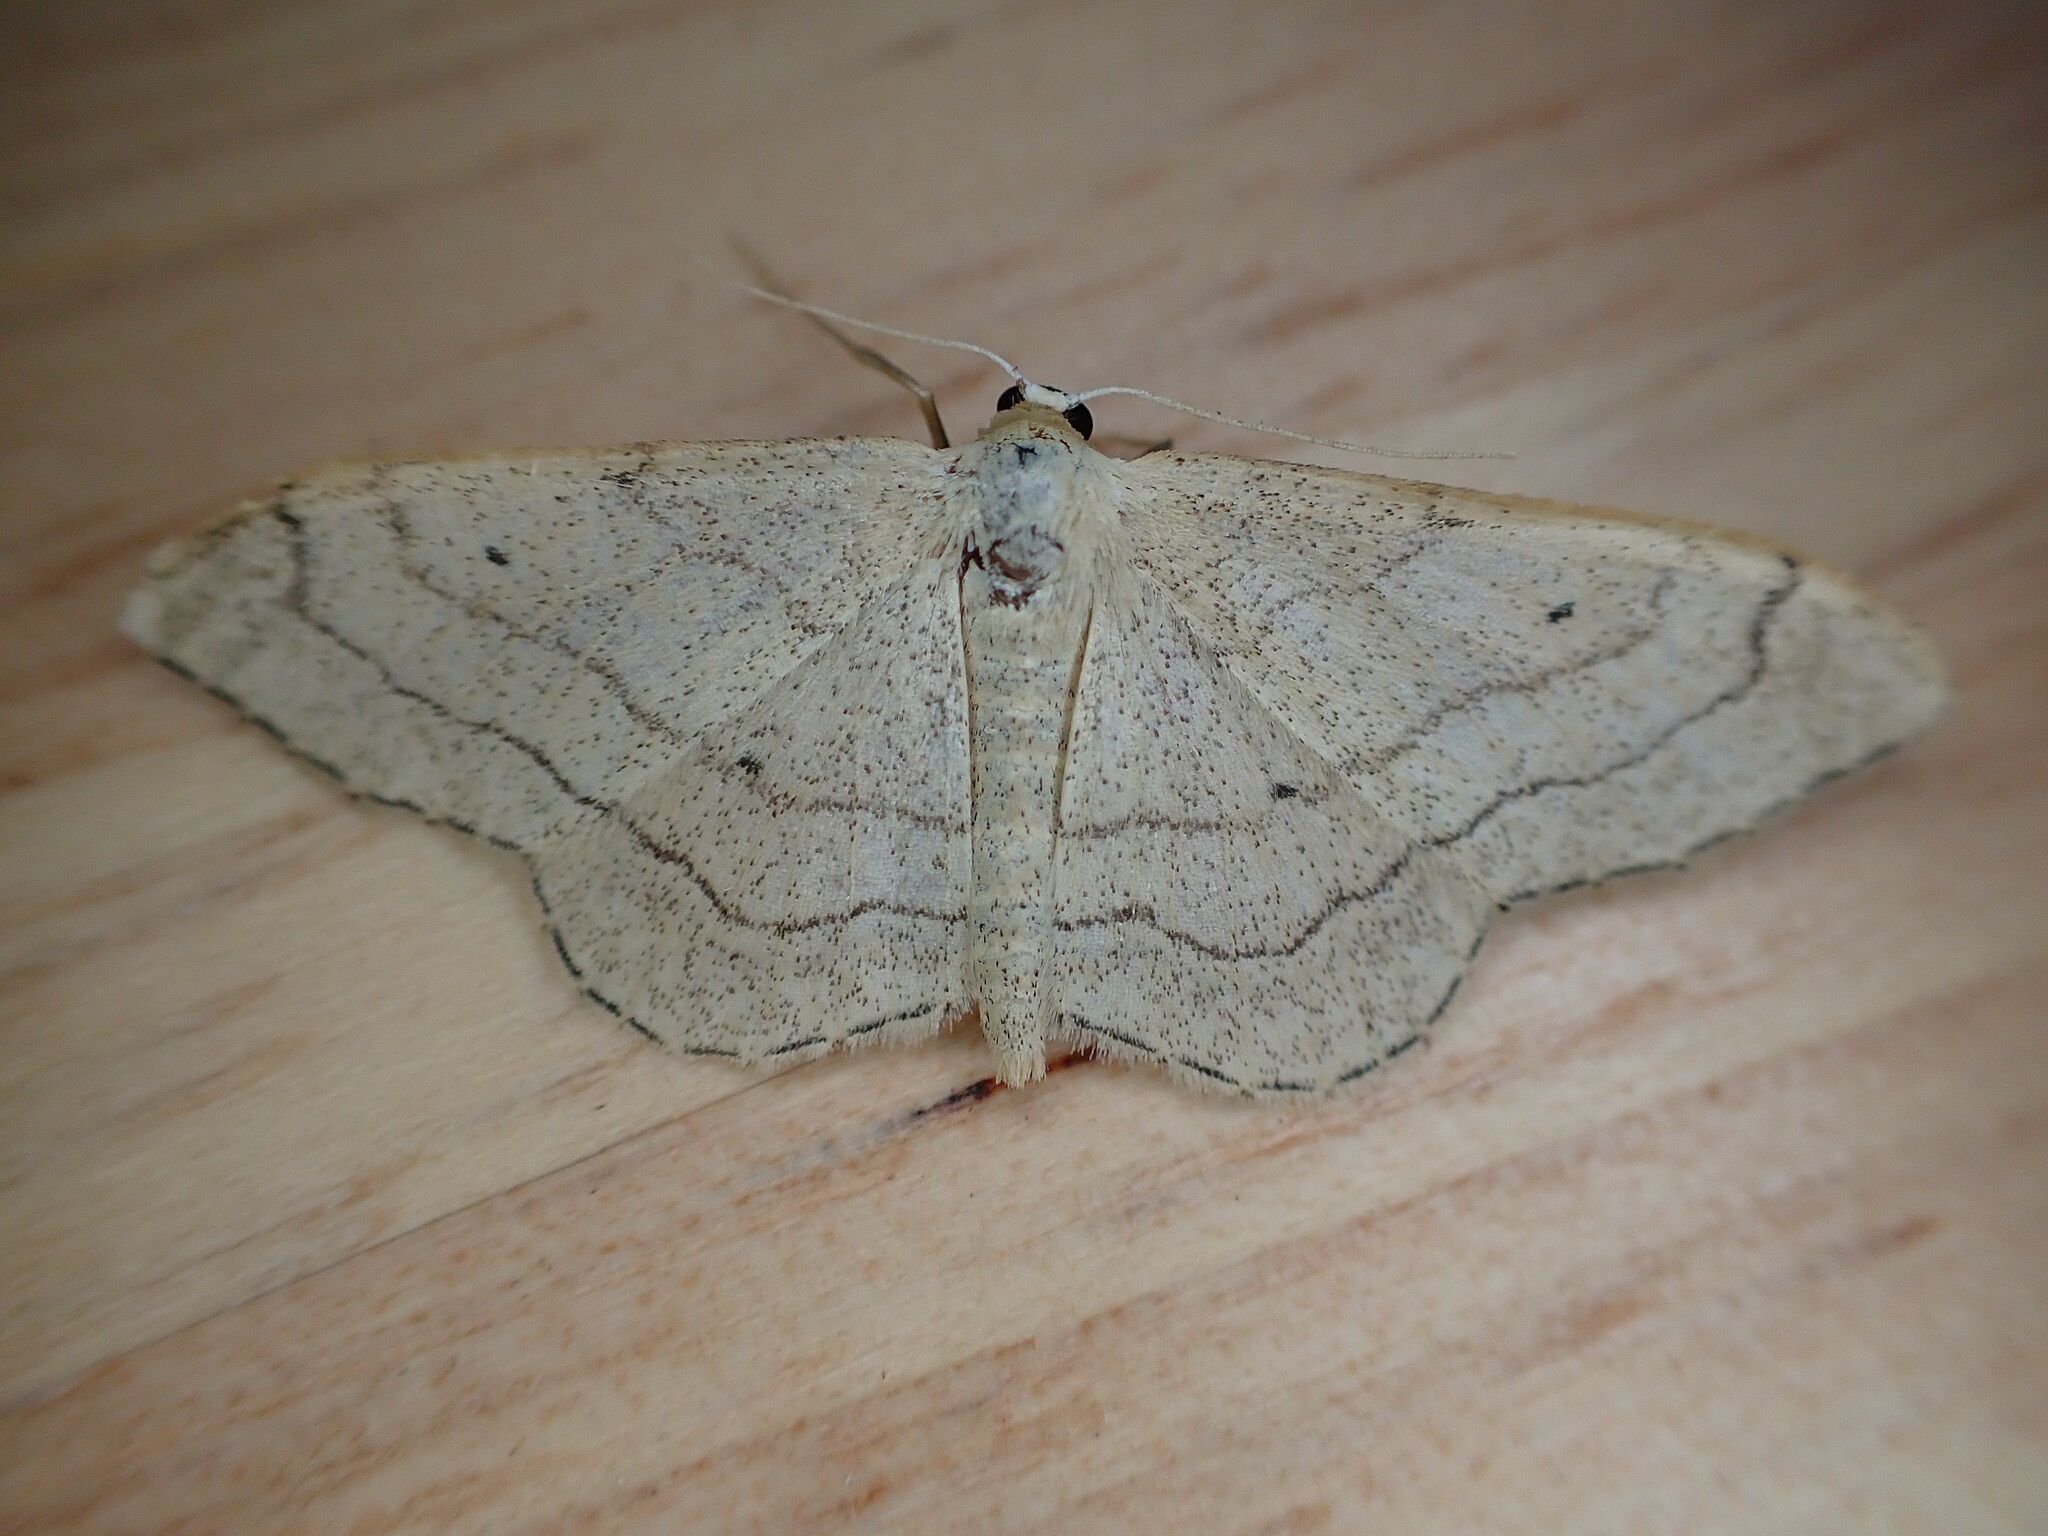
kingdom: Animalia
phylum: Arthropoda
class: Insecta
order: Lepidoptera
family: Geometridae
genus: Idaea
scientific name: Idaea aversata
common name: Riband wave
